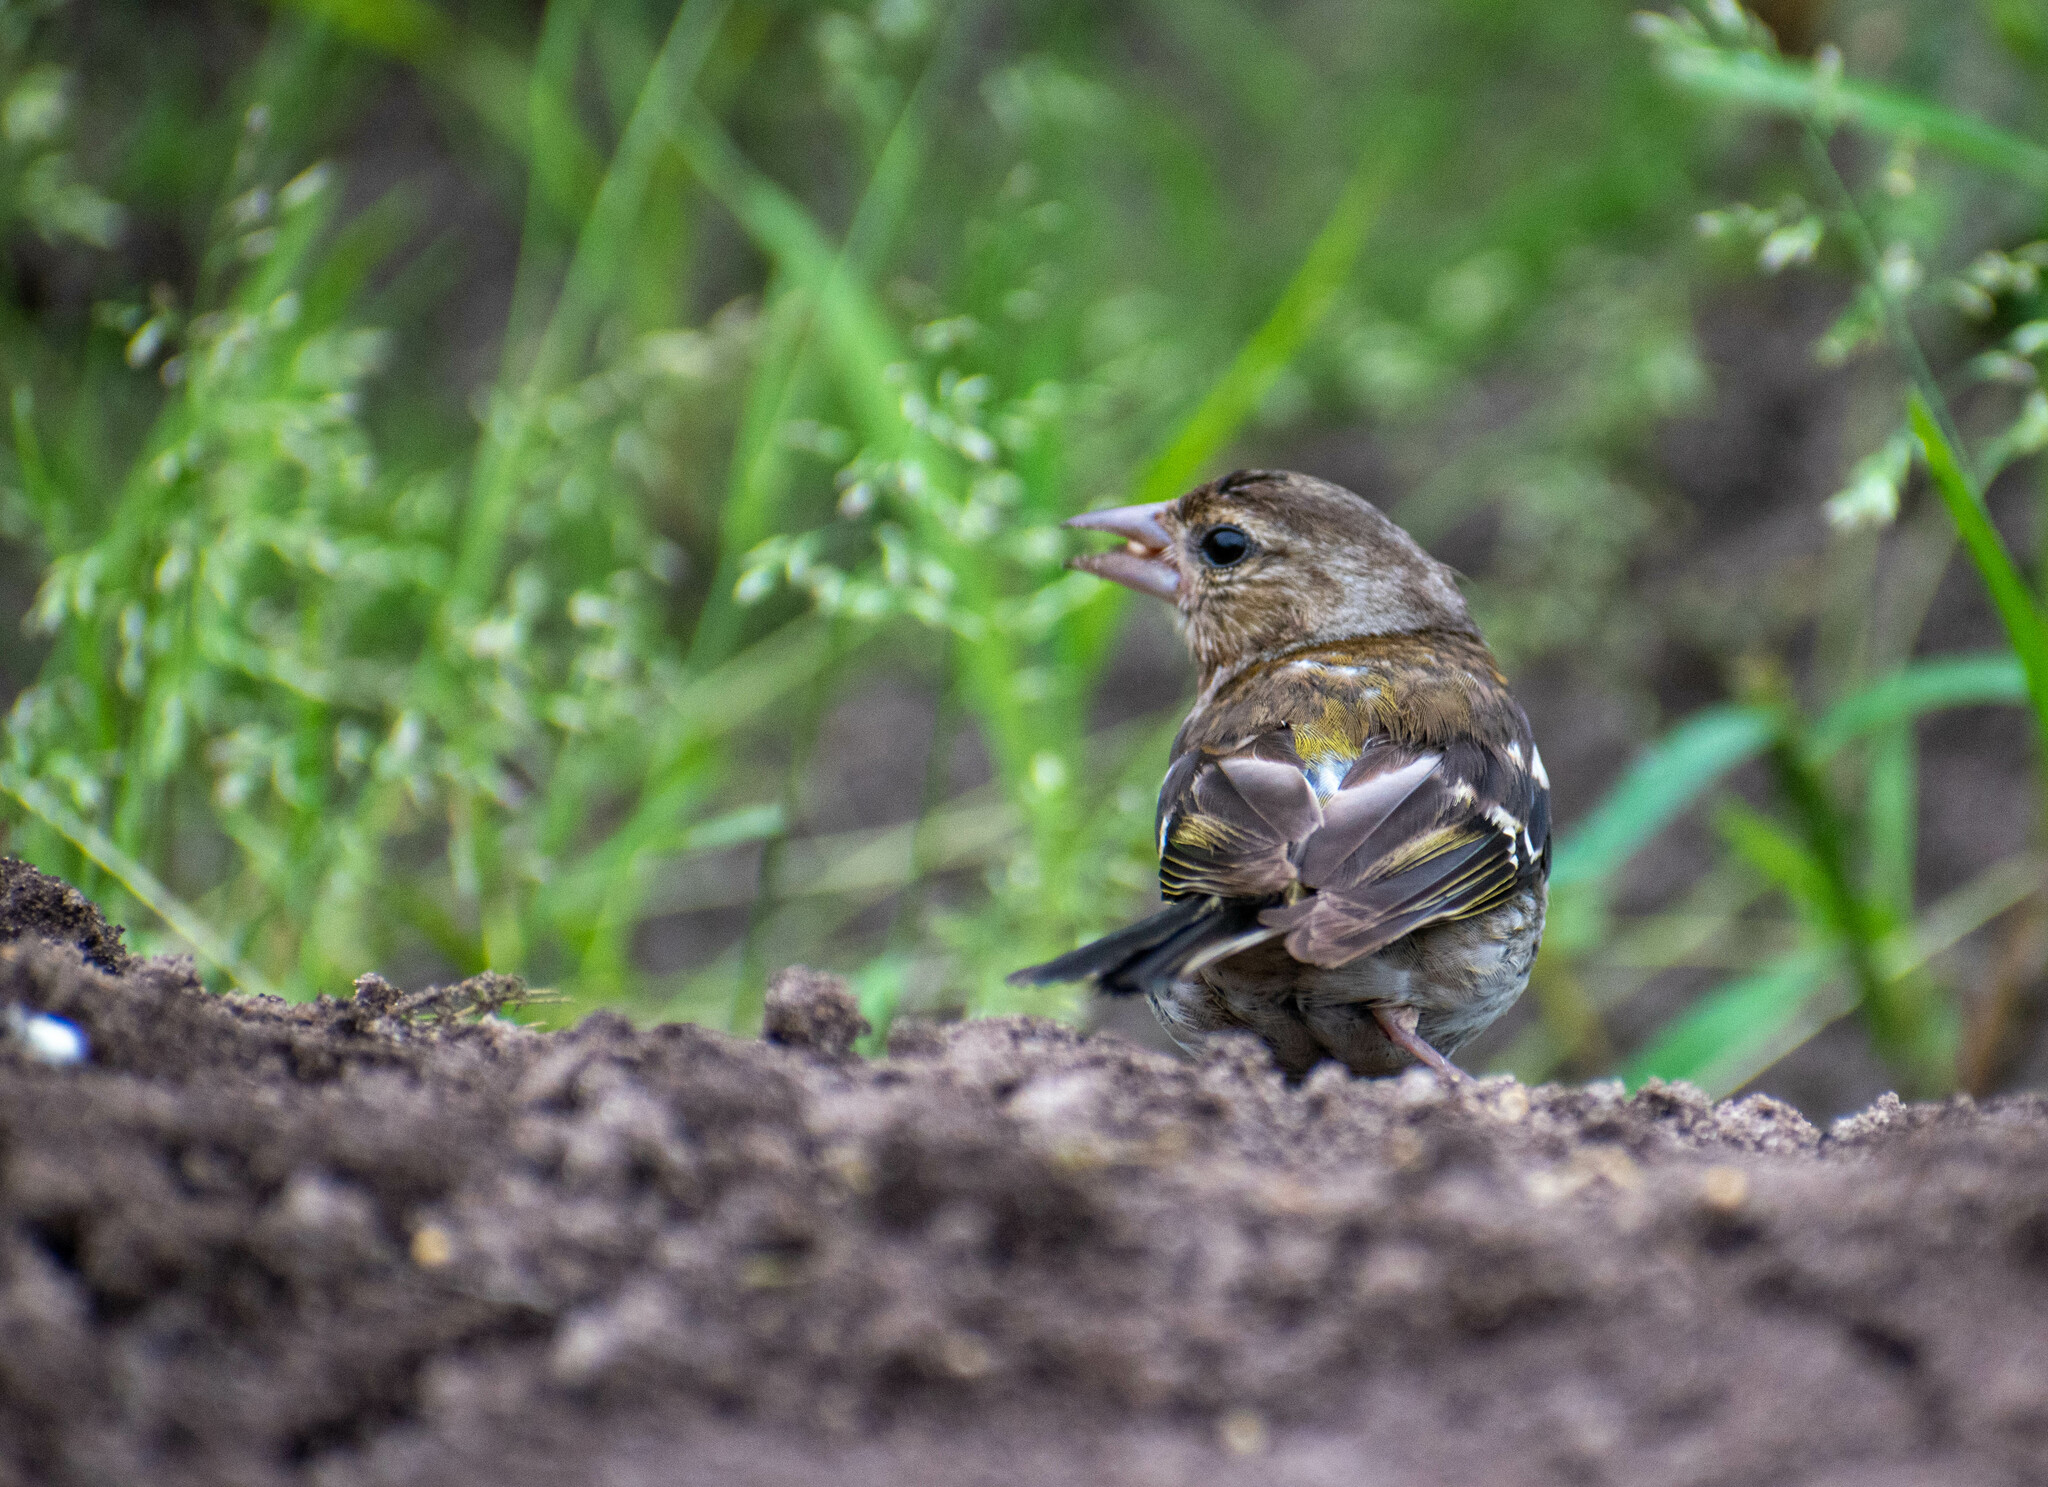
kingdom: Animalia
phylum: Chordata
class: Aves
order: Passeriformes
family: Fringillidae
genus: Fringilla
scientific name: Fringilla coelebs
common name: Common chaffinch
